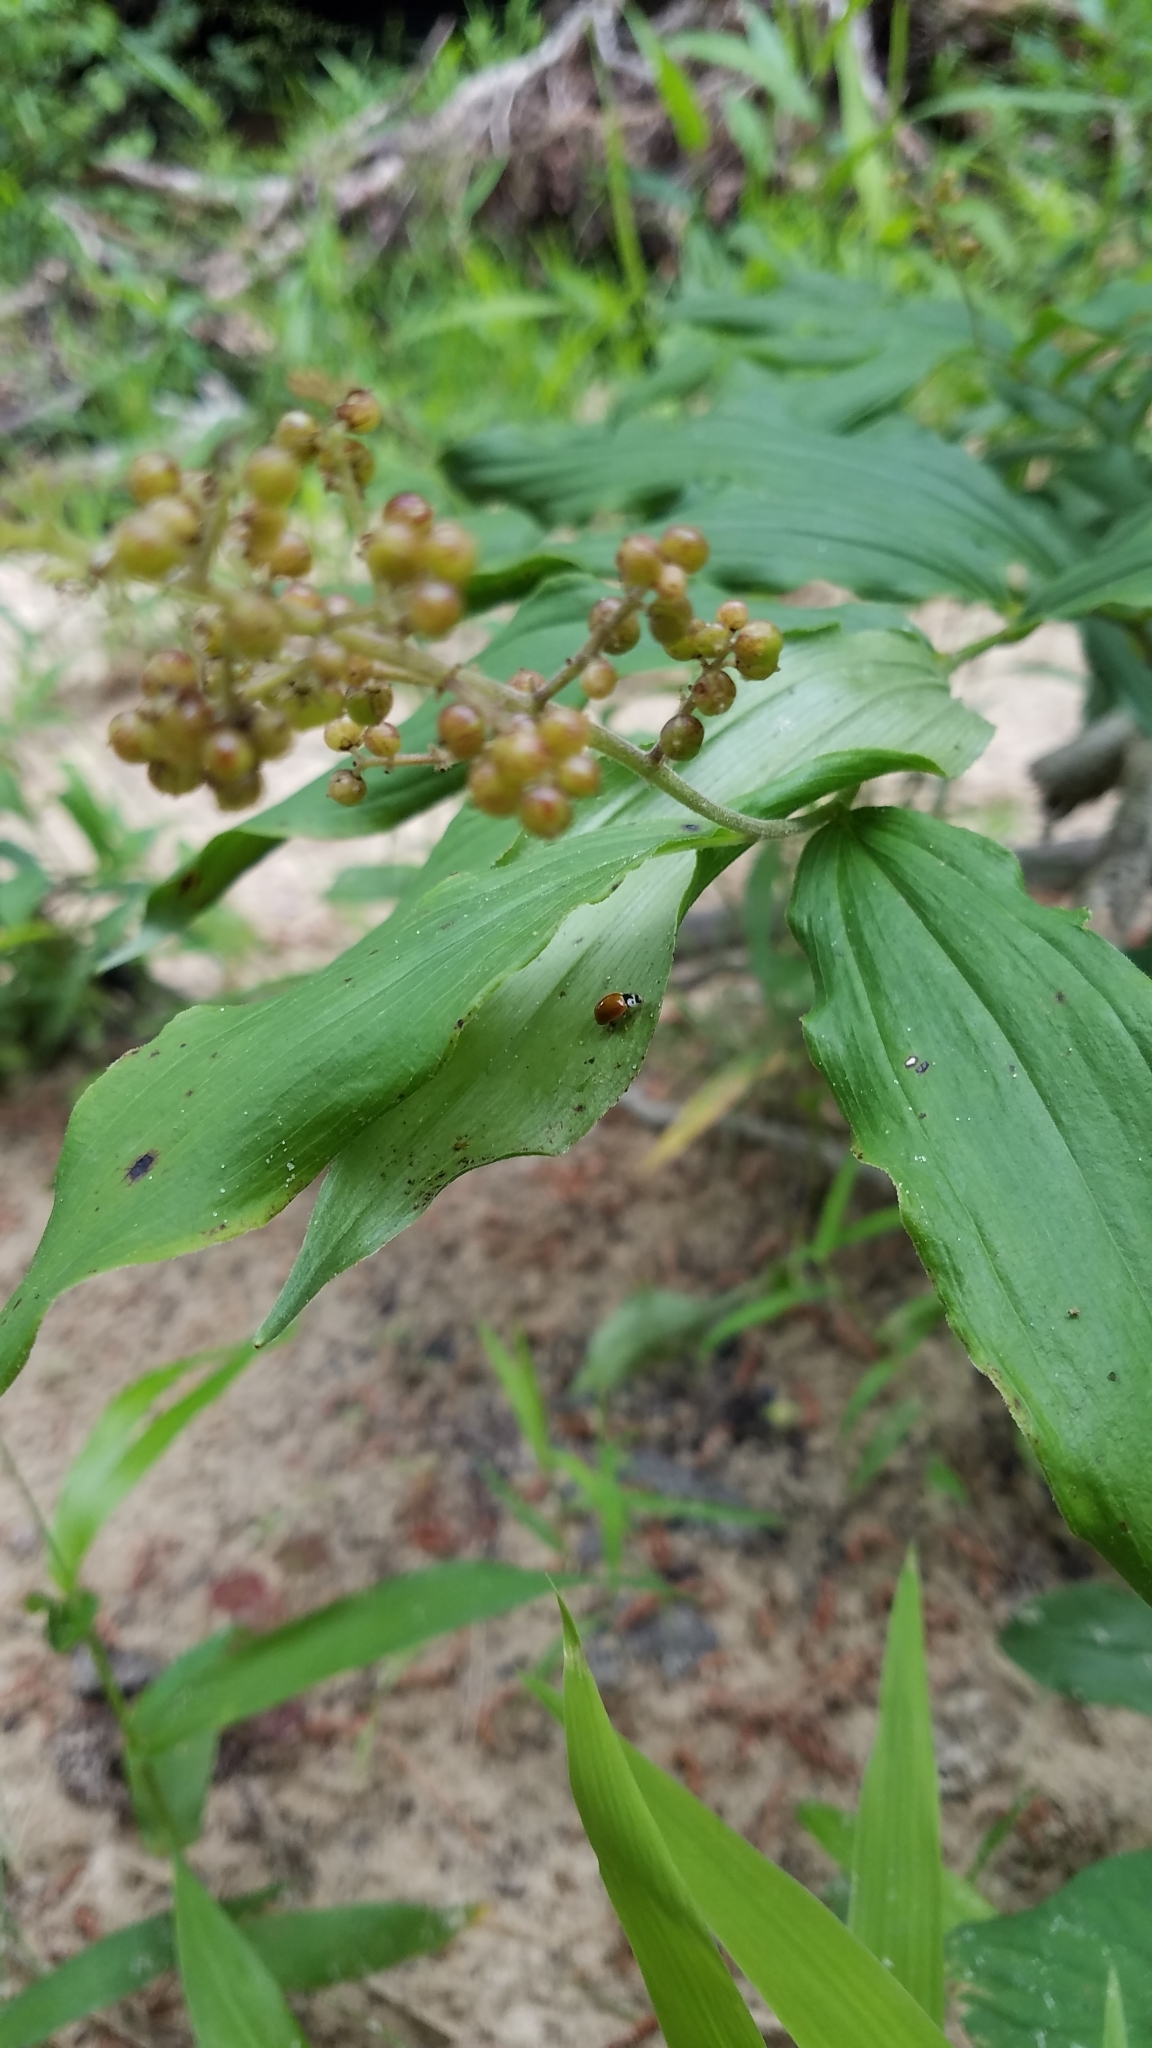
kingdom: Plantae
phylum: Tracheophyta
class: Liliopsida
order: Asparagales
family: Asparagaceae
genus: Maianthemum
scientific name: Maianthemum racemosum
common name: False spikenard
